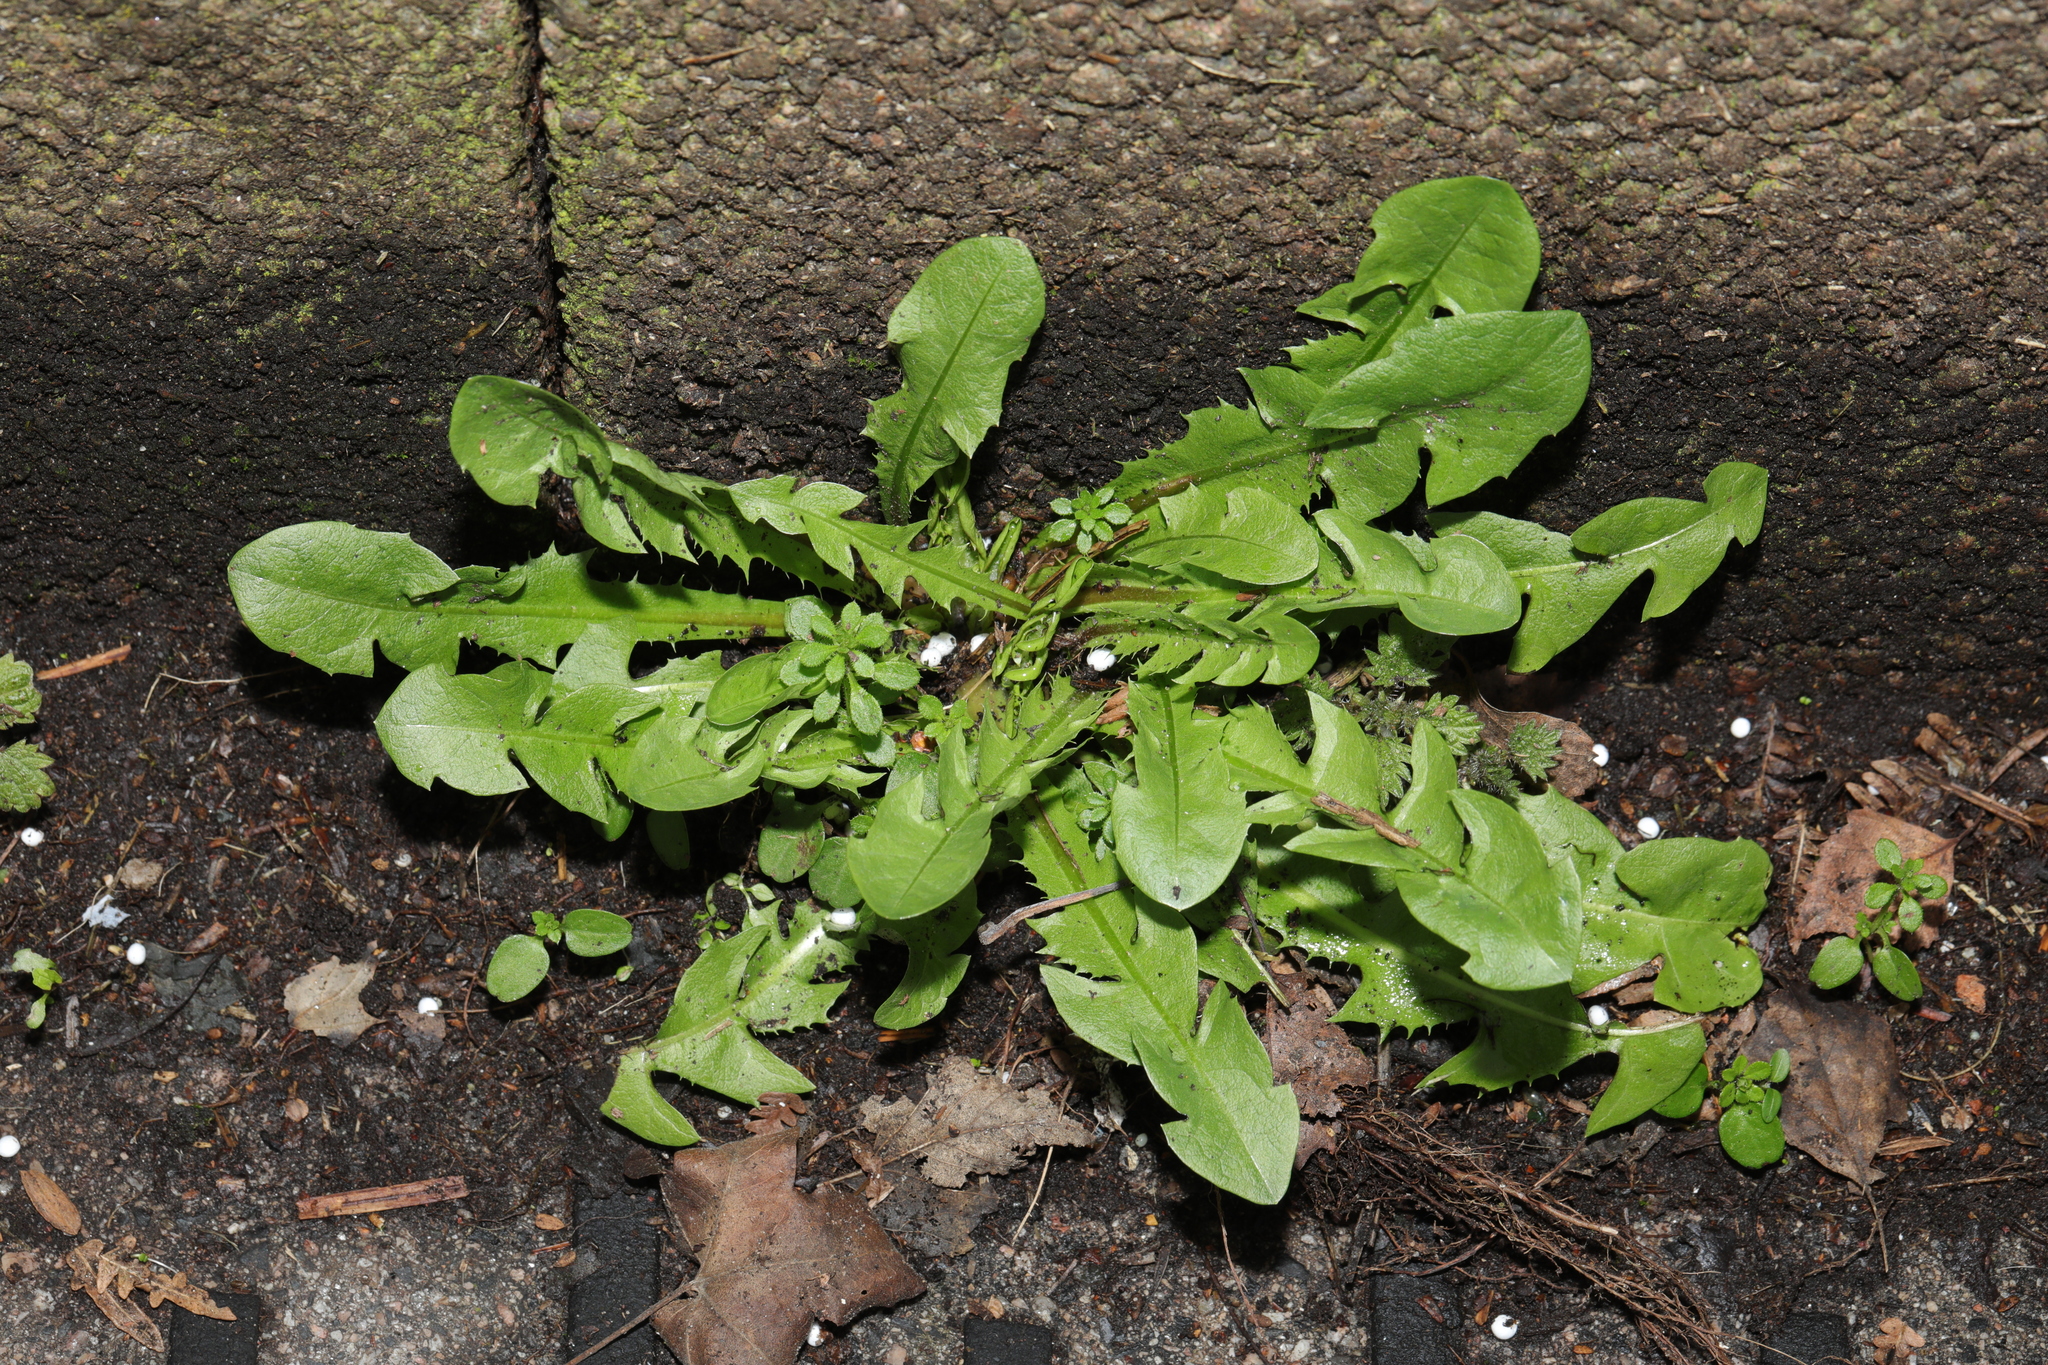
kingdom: Plantae
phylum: Tracheophyta
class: Magnoliopsida
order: Asterales
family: Asteraceae
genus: Taraxacum
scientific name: Taraxacum officinale
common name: Common dandelion
